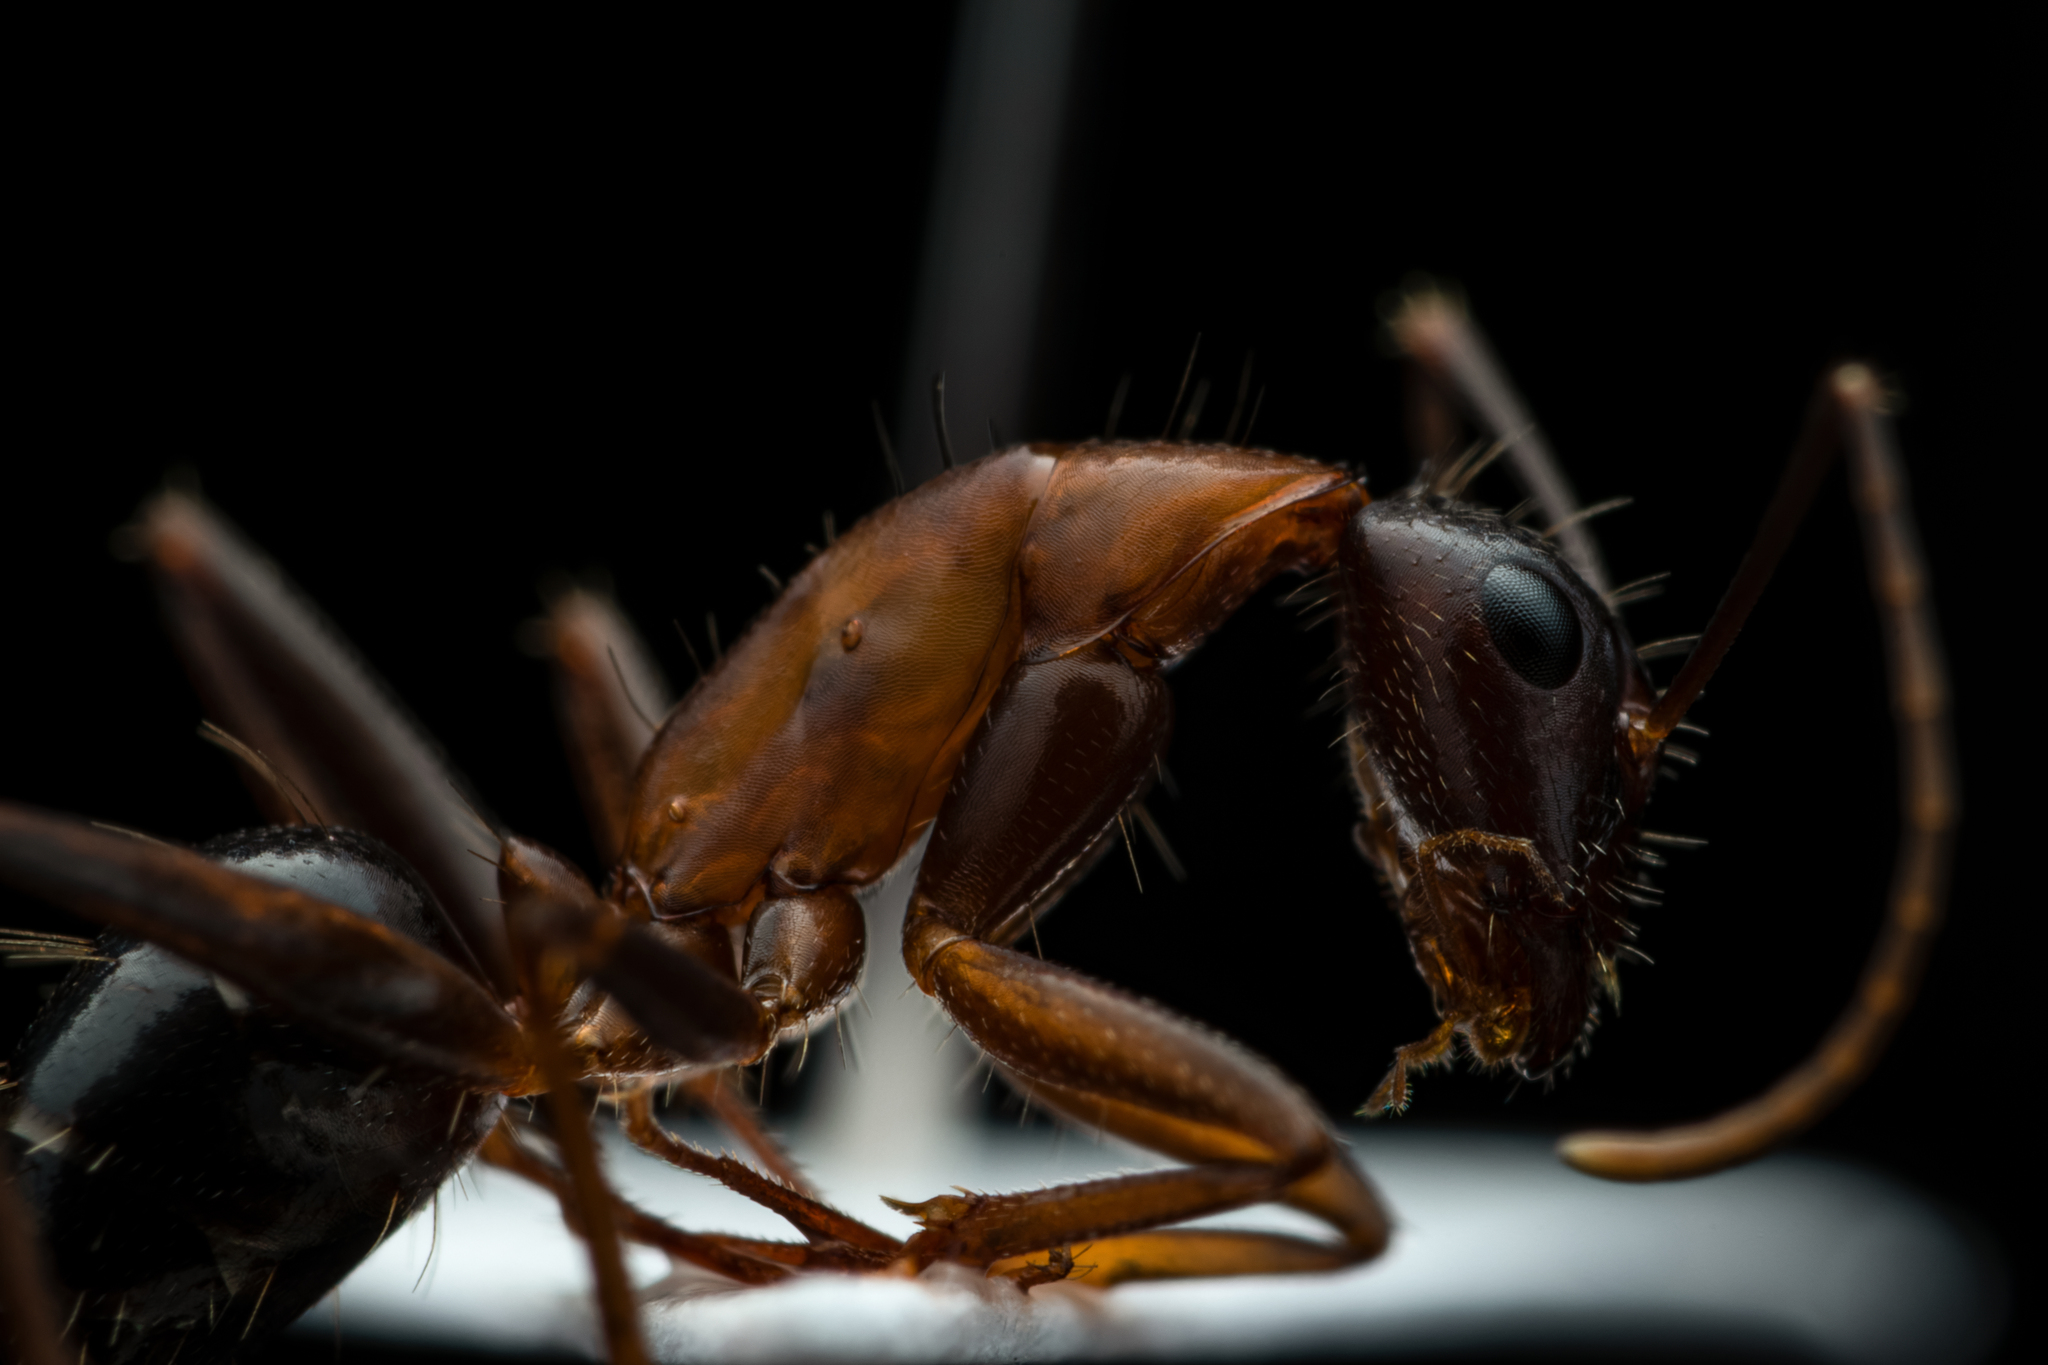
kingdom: Animalia
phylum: Arthropoda
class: Insecta
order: Hymenoptera
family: Formicidae
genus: Camponotus
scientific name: Camponotus barbaricus
